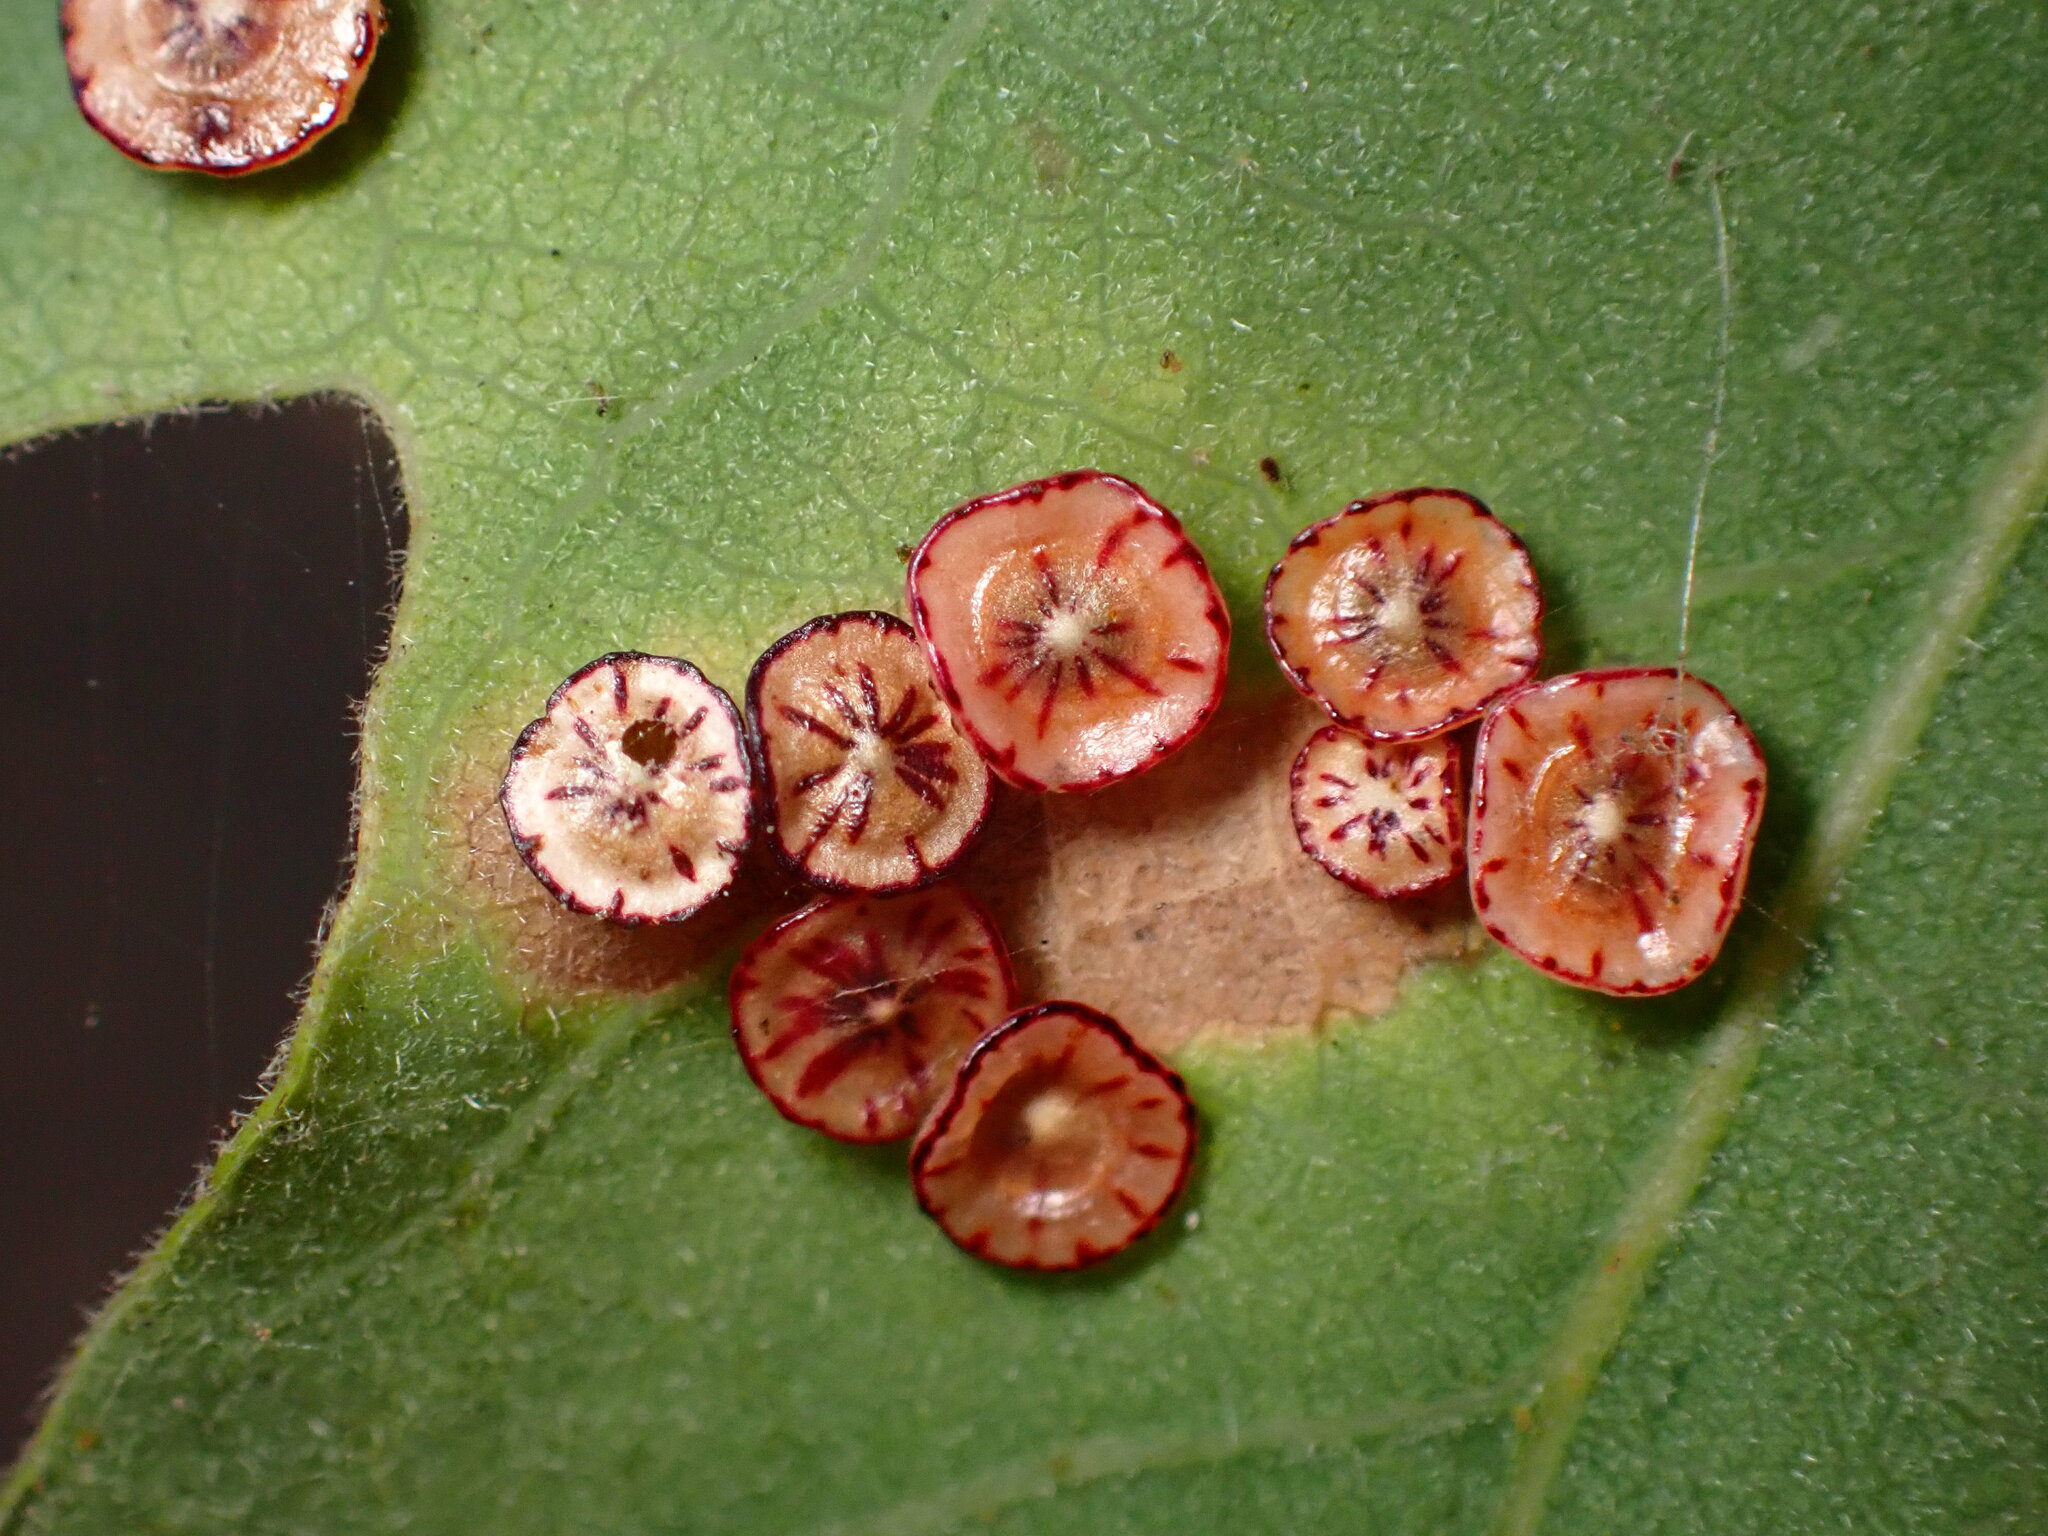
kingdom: Animalia
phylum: Arthropoda
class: Insecta
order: Hymenoptera
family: Cynipidae
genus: Andricus
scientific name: Andricus
